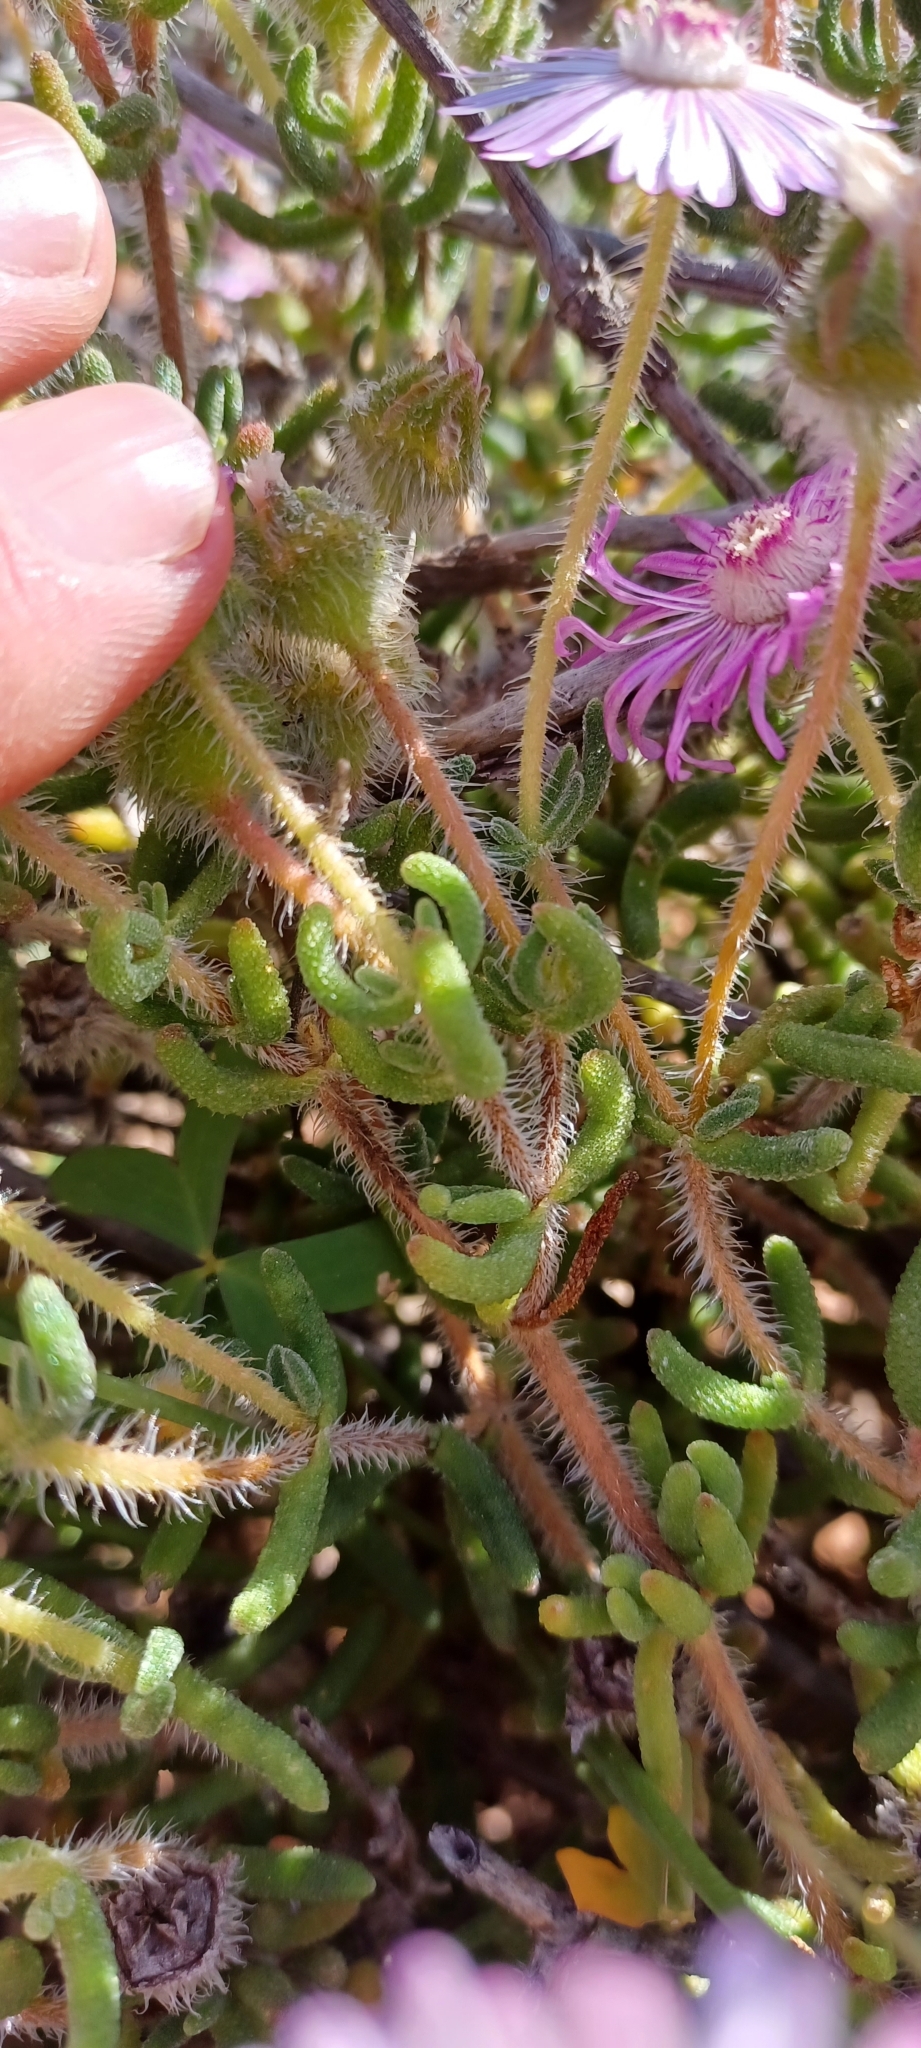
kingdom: Plantae
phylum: Tracheophyta
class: Magnoliopsida
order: Caryophyllales
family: Aizoaceae
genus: Drosanthemum
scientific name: Drosanthemum striatum
